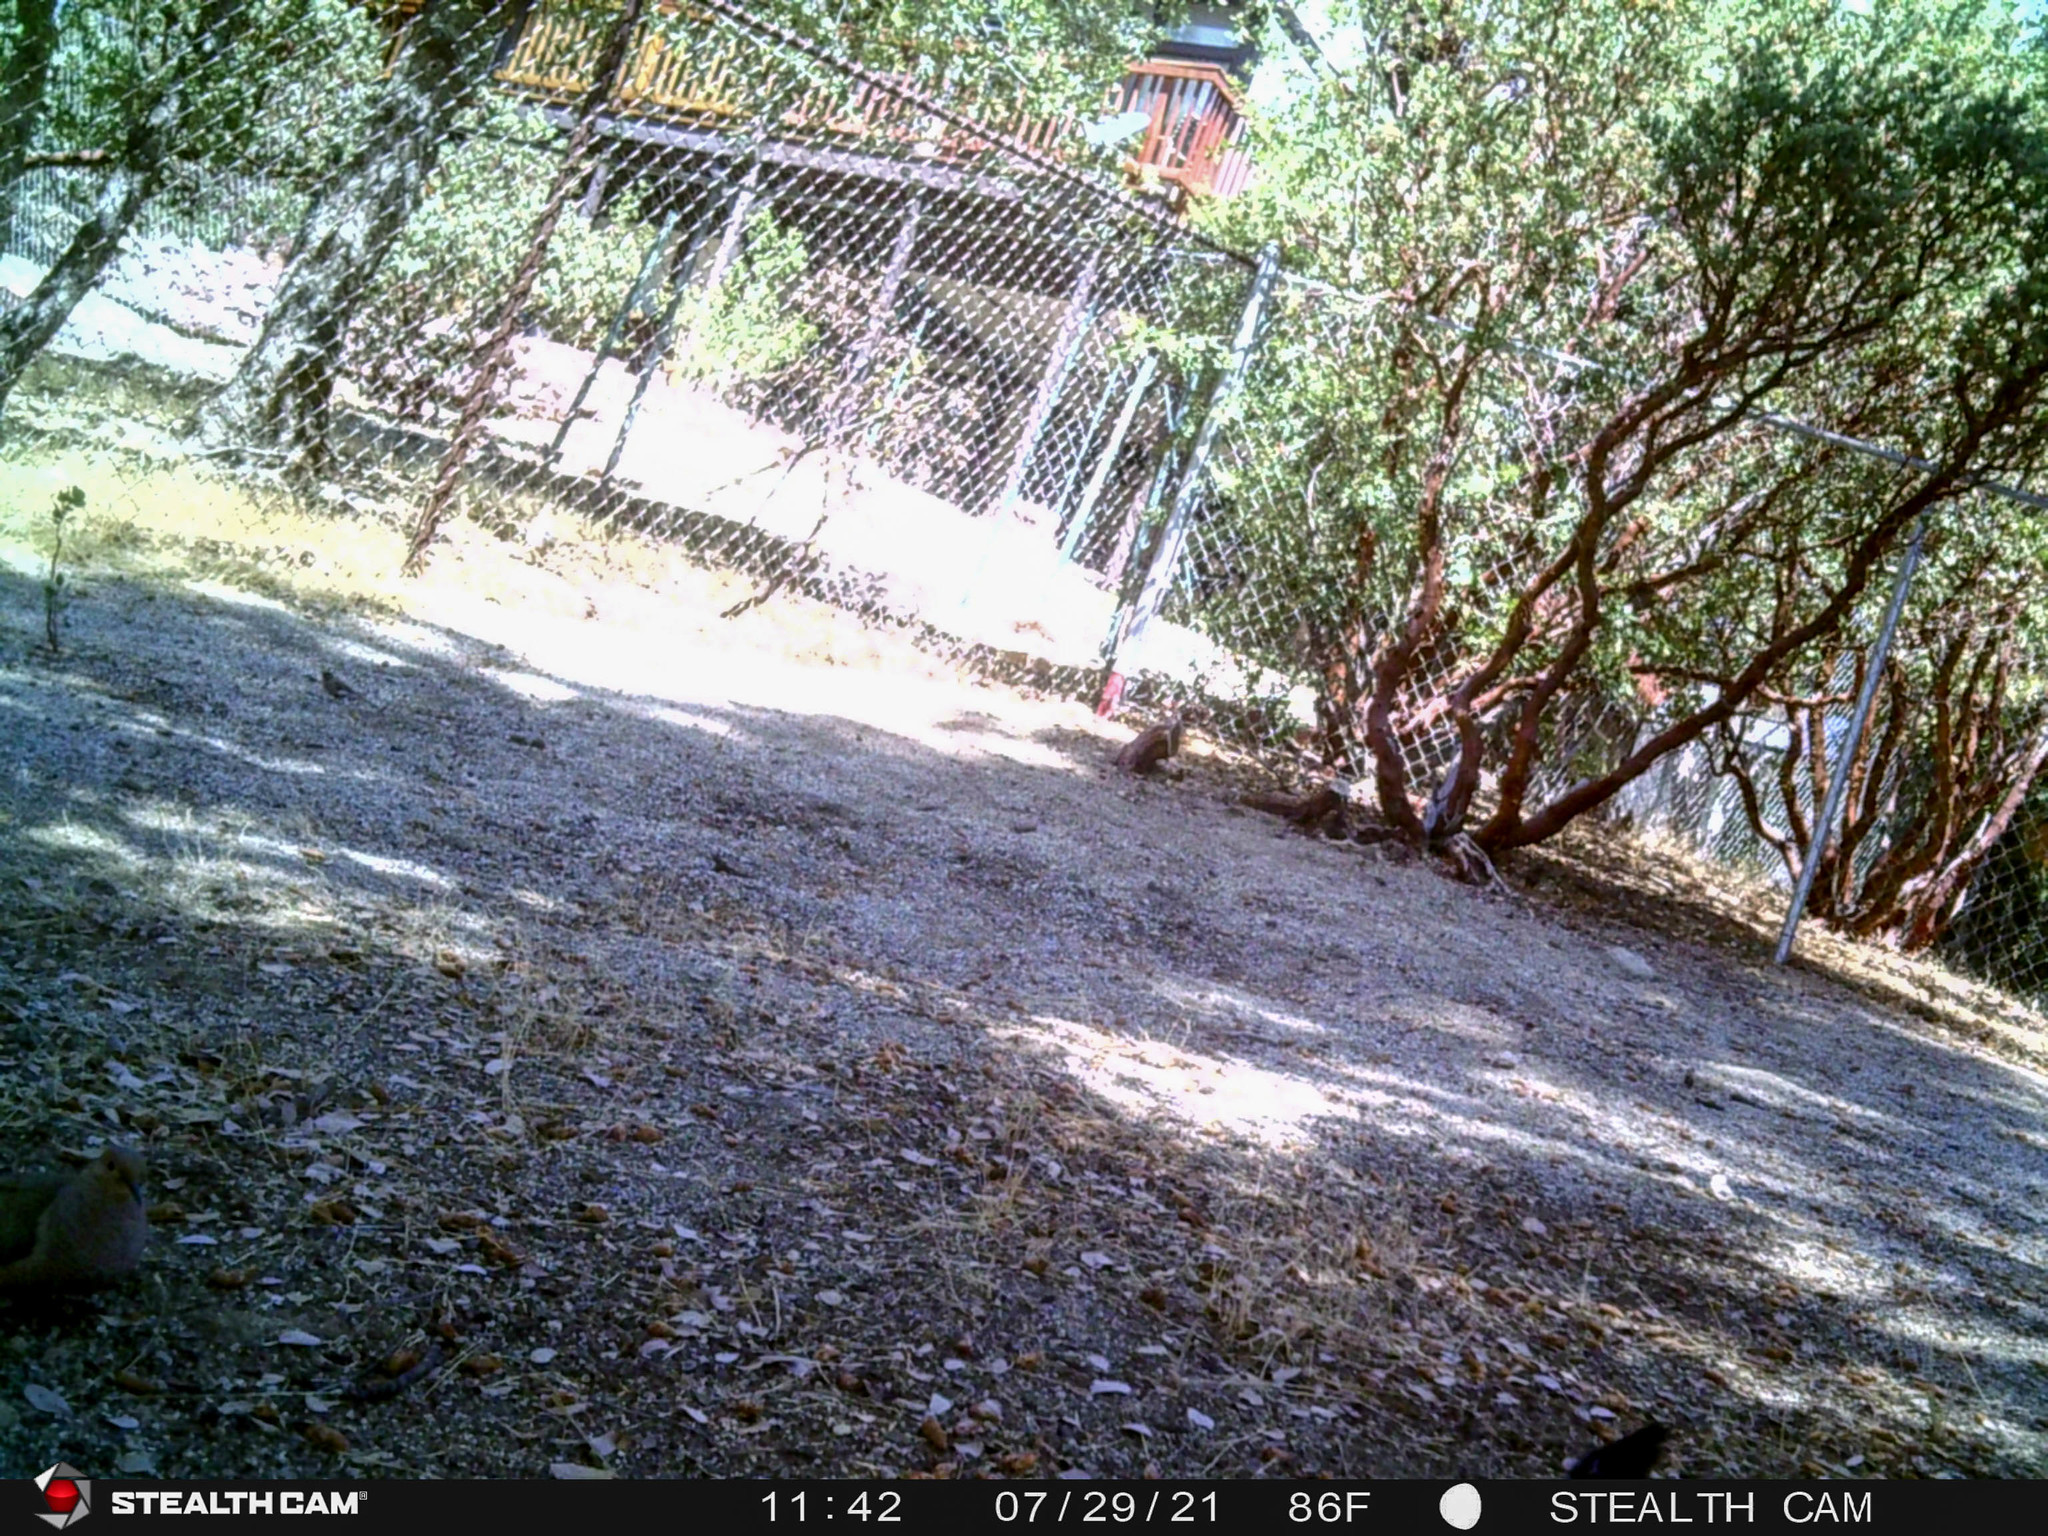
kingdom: Animalia
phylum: Chordata
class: Aves
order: Columbiformes
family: Columbidae
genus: Zenaida
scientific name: Zenaida macroura
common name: Mourning dove
